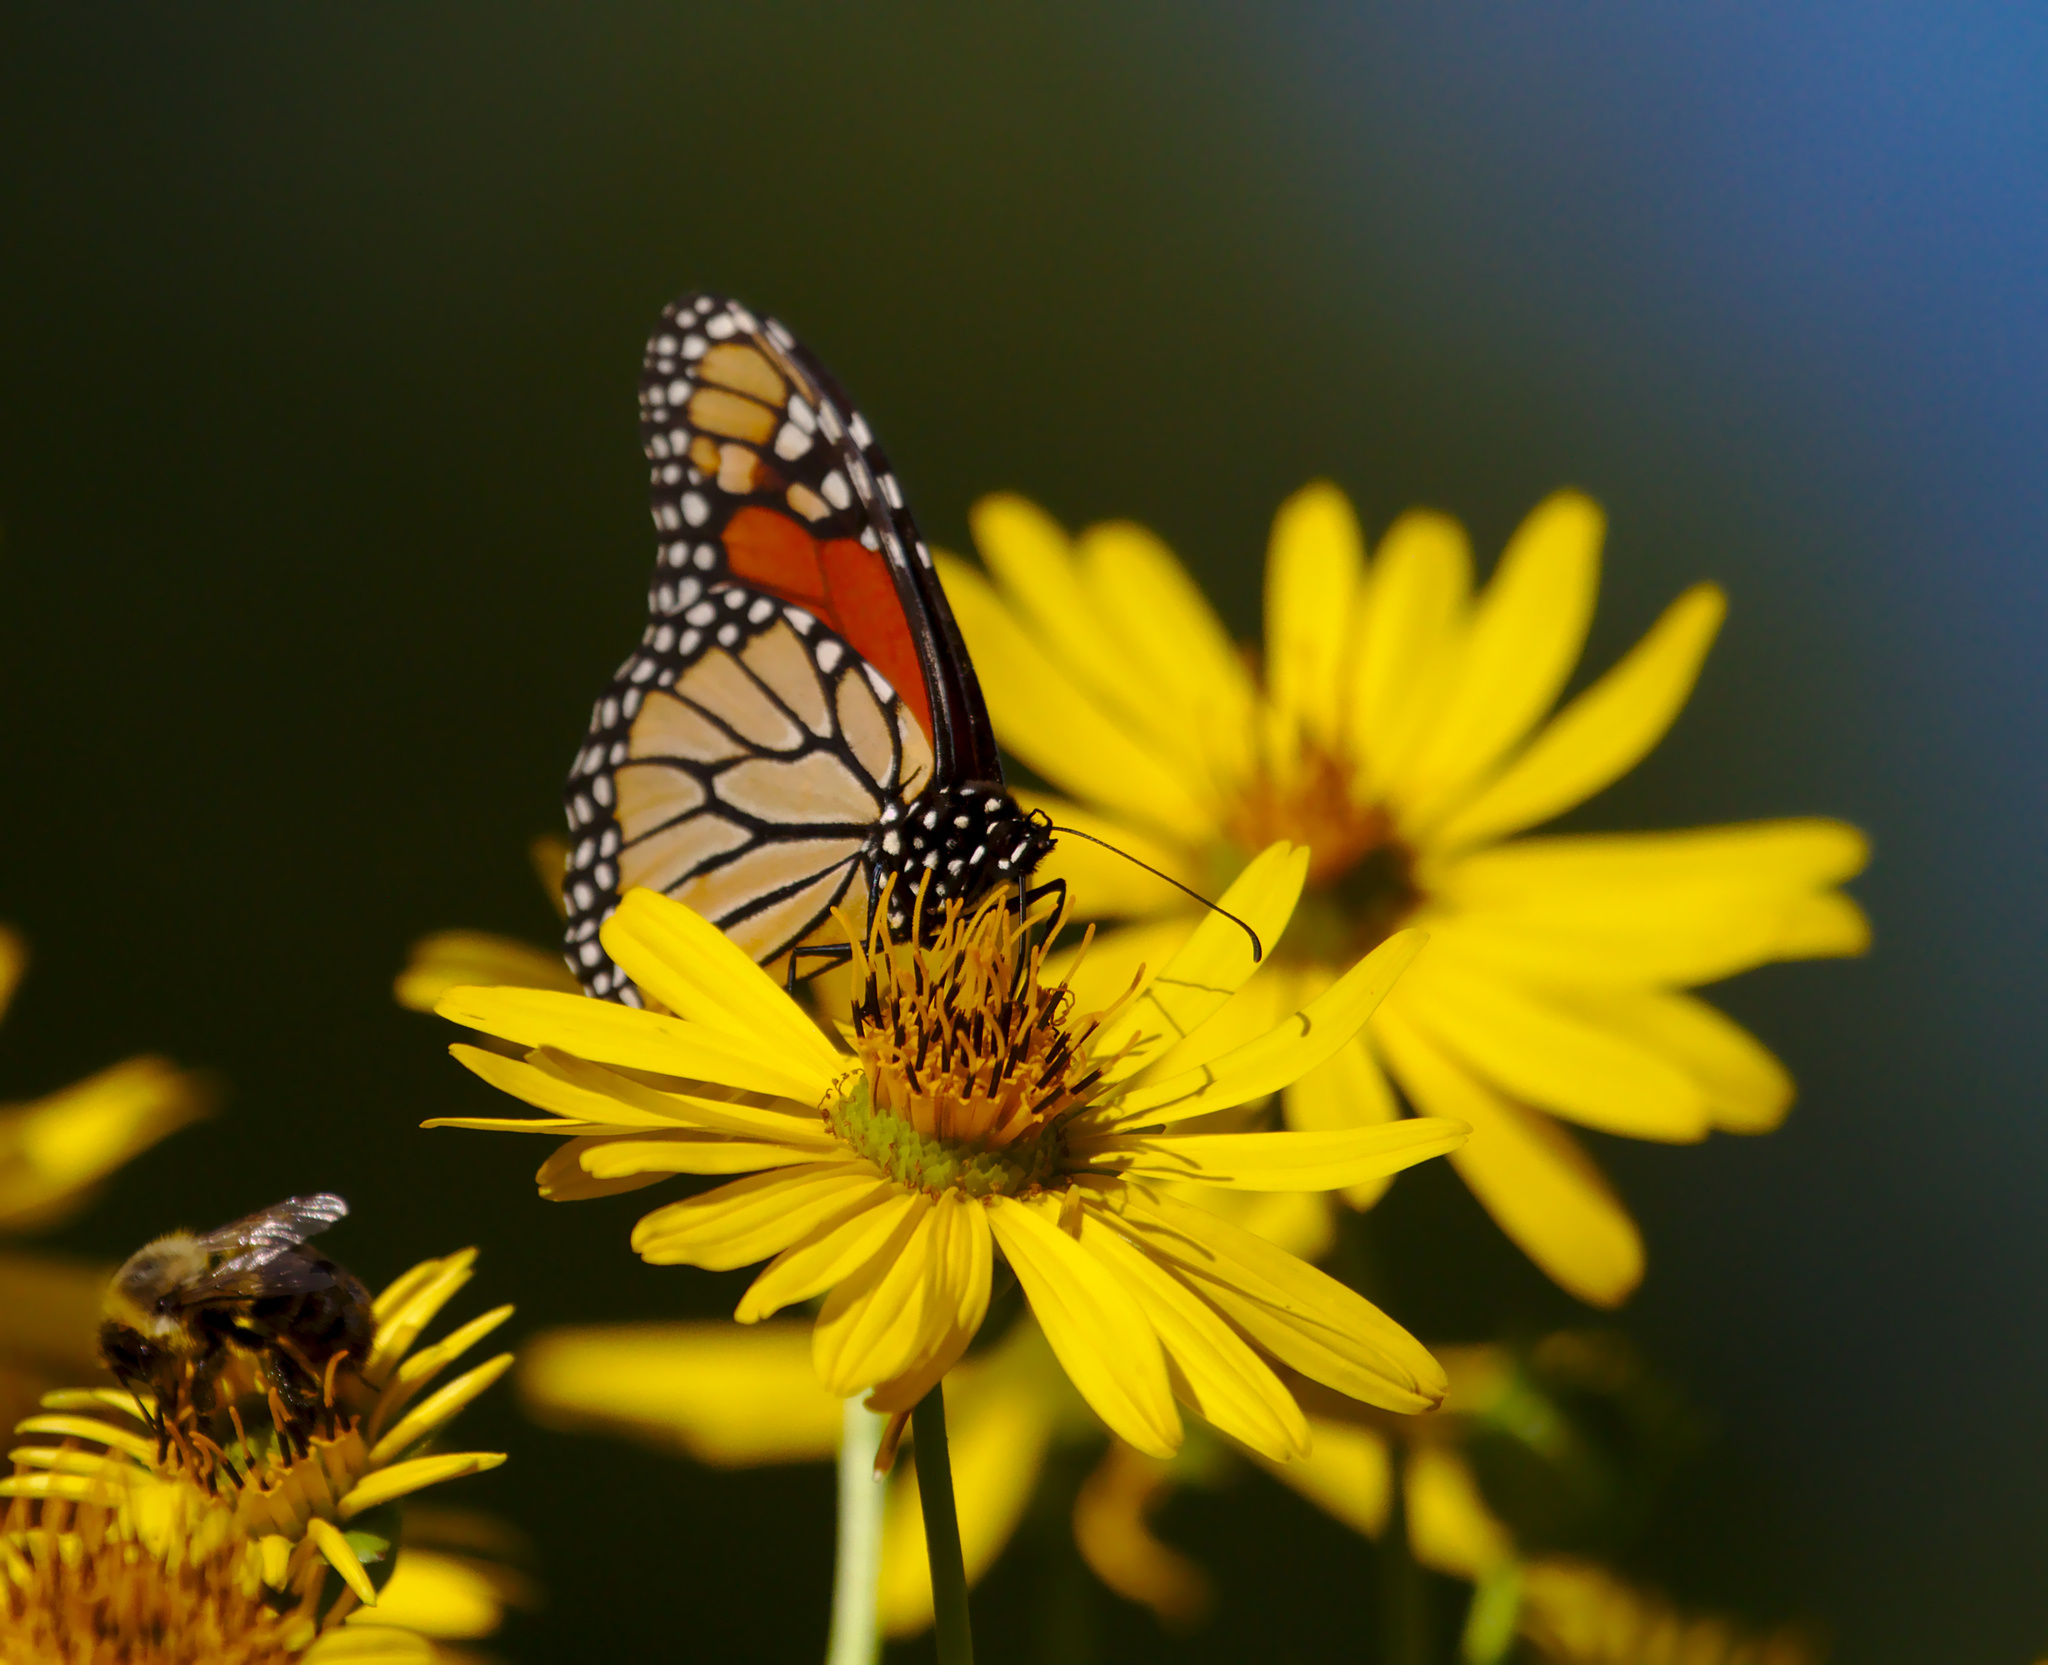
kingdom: Animalia
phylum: Arthropoda
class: Insecta
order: Lepidoptera
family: Nymphalidae
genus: Danaus
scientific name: Danaus plexippus
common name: Monarch
